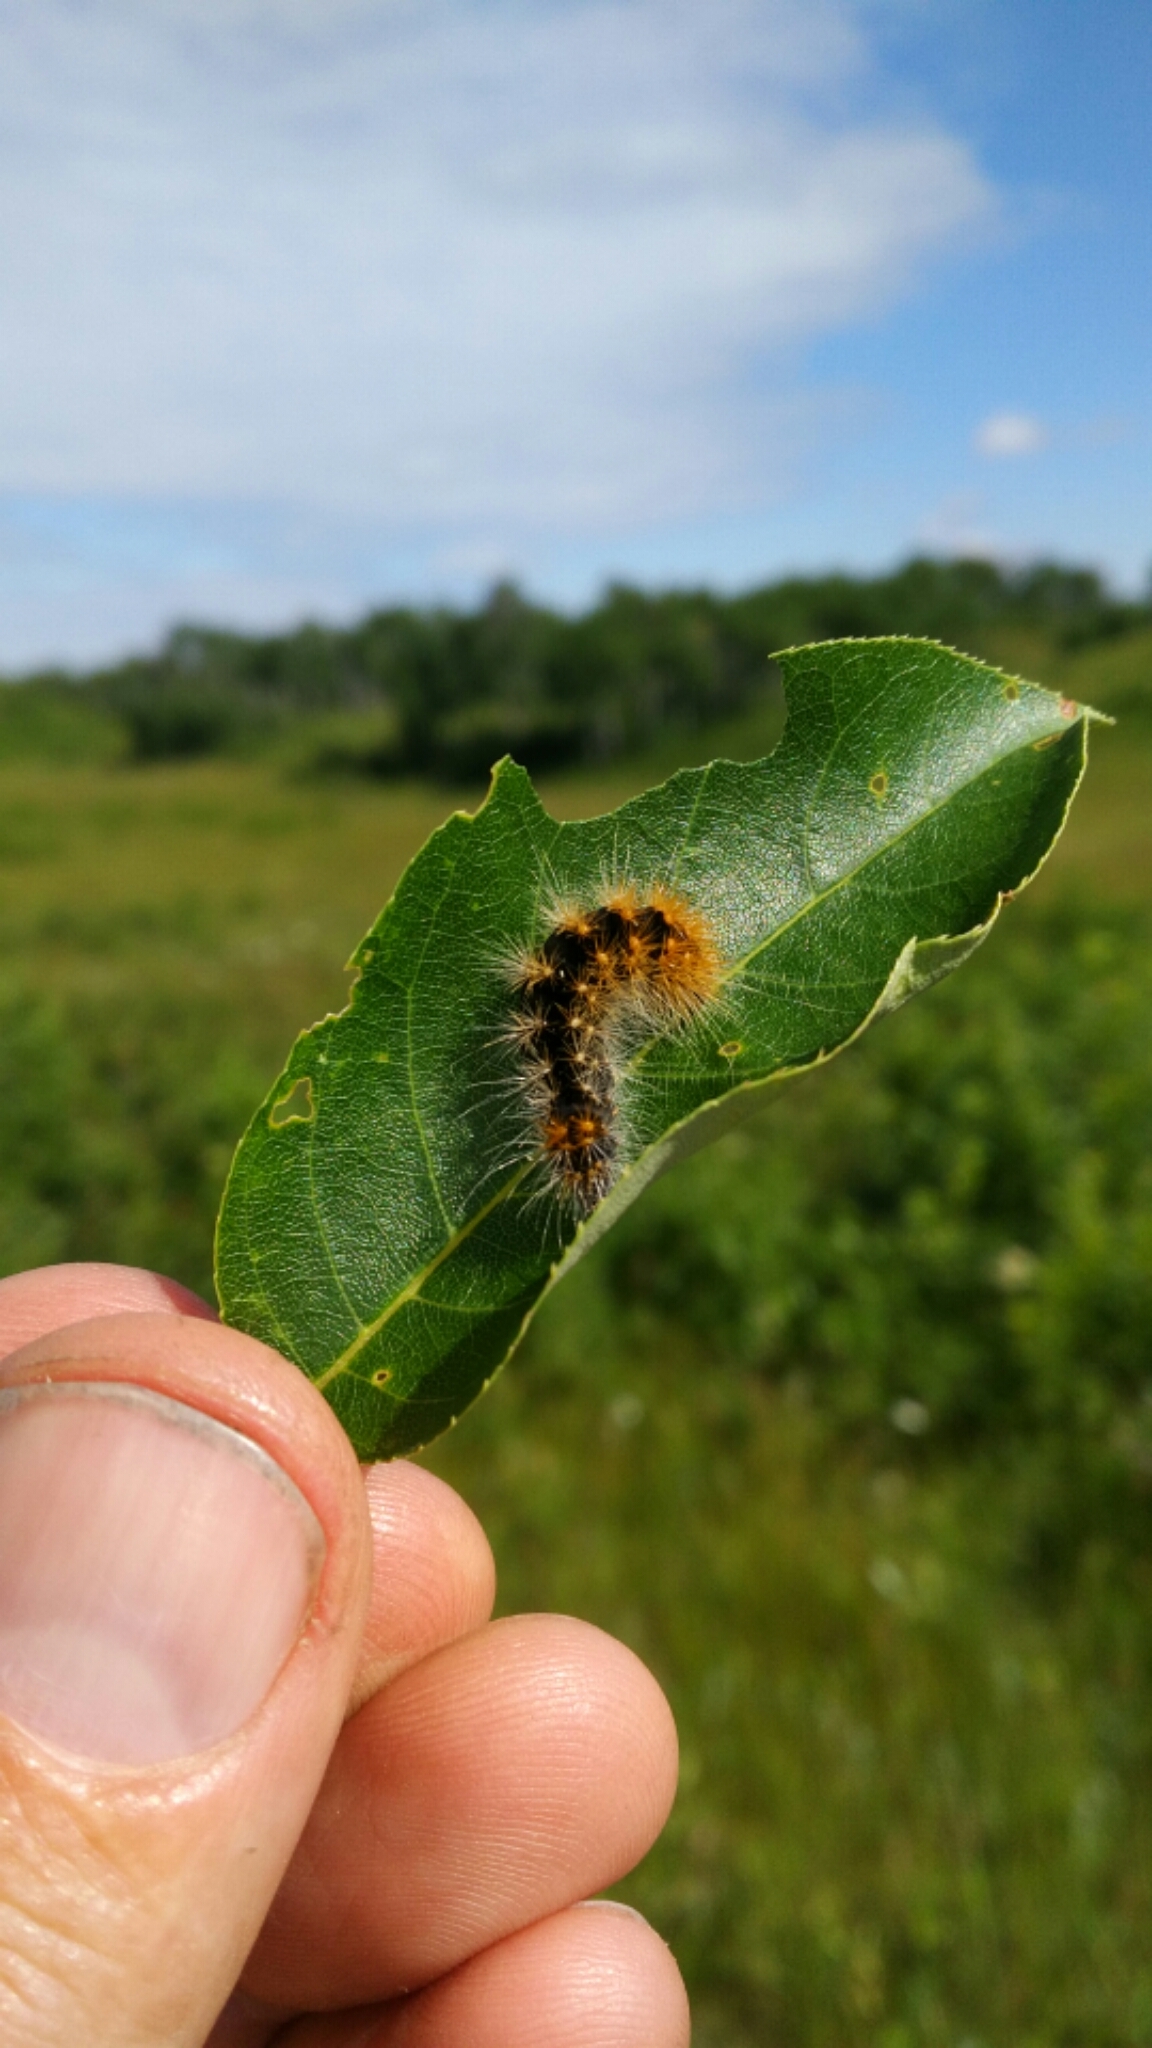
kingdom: Animalia
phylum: Arthropoda
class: Insecta
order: Lepidoptera
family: Noctuidae
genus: Acronicta
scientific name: Acronicta impressa
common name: Impressed dagger
